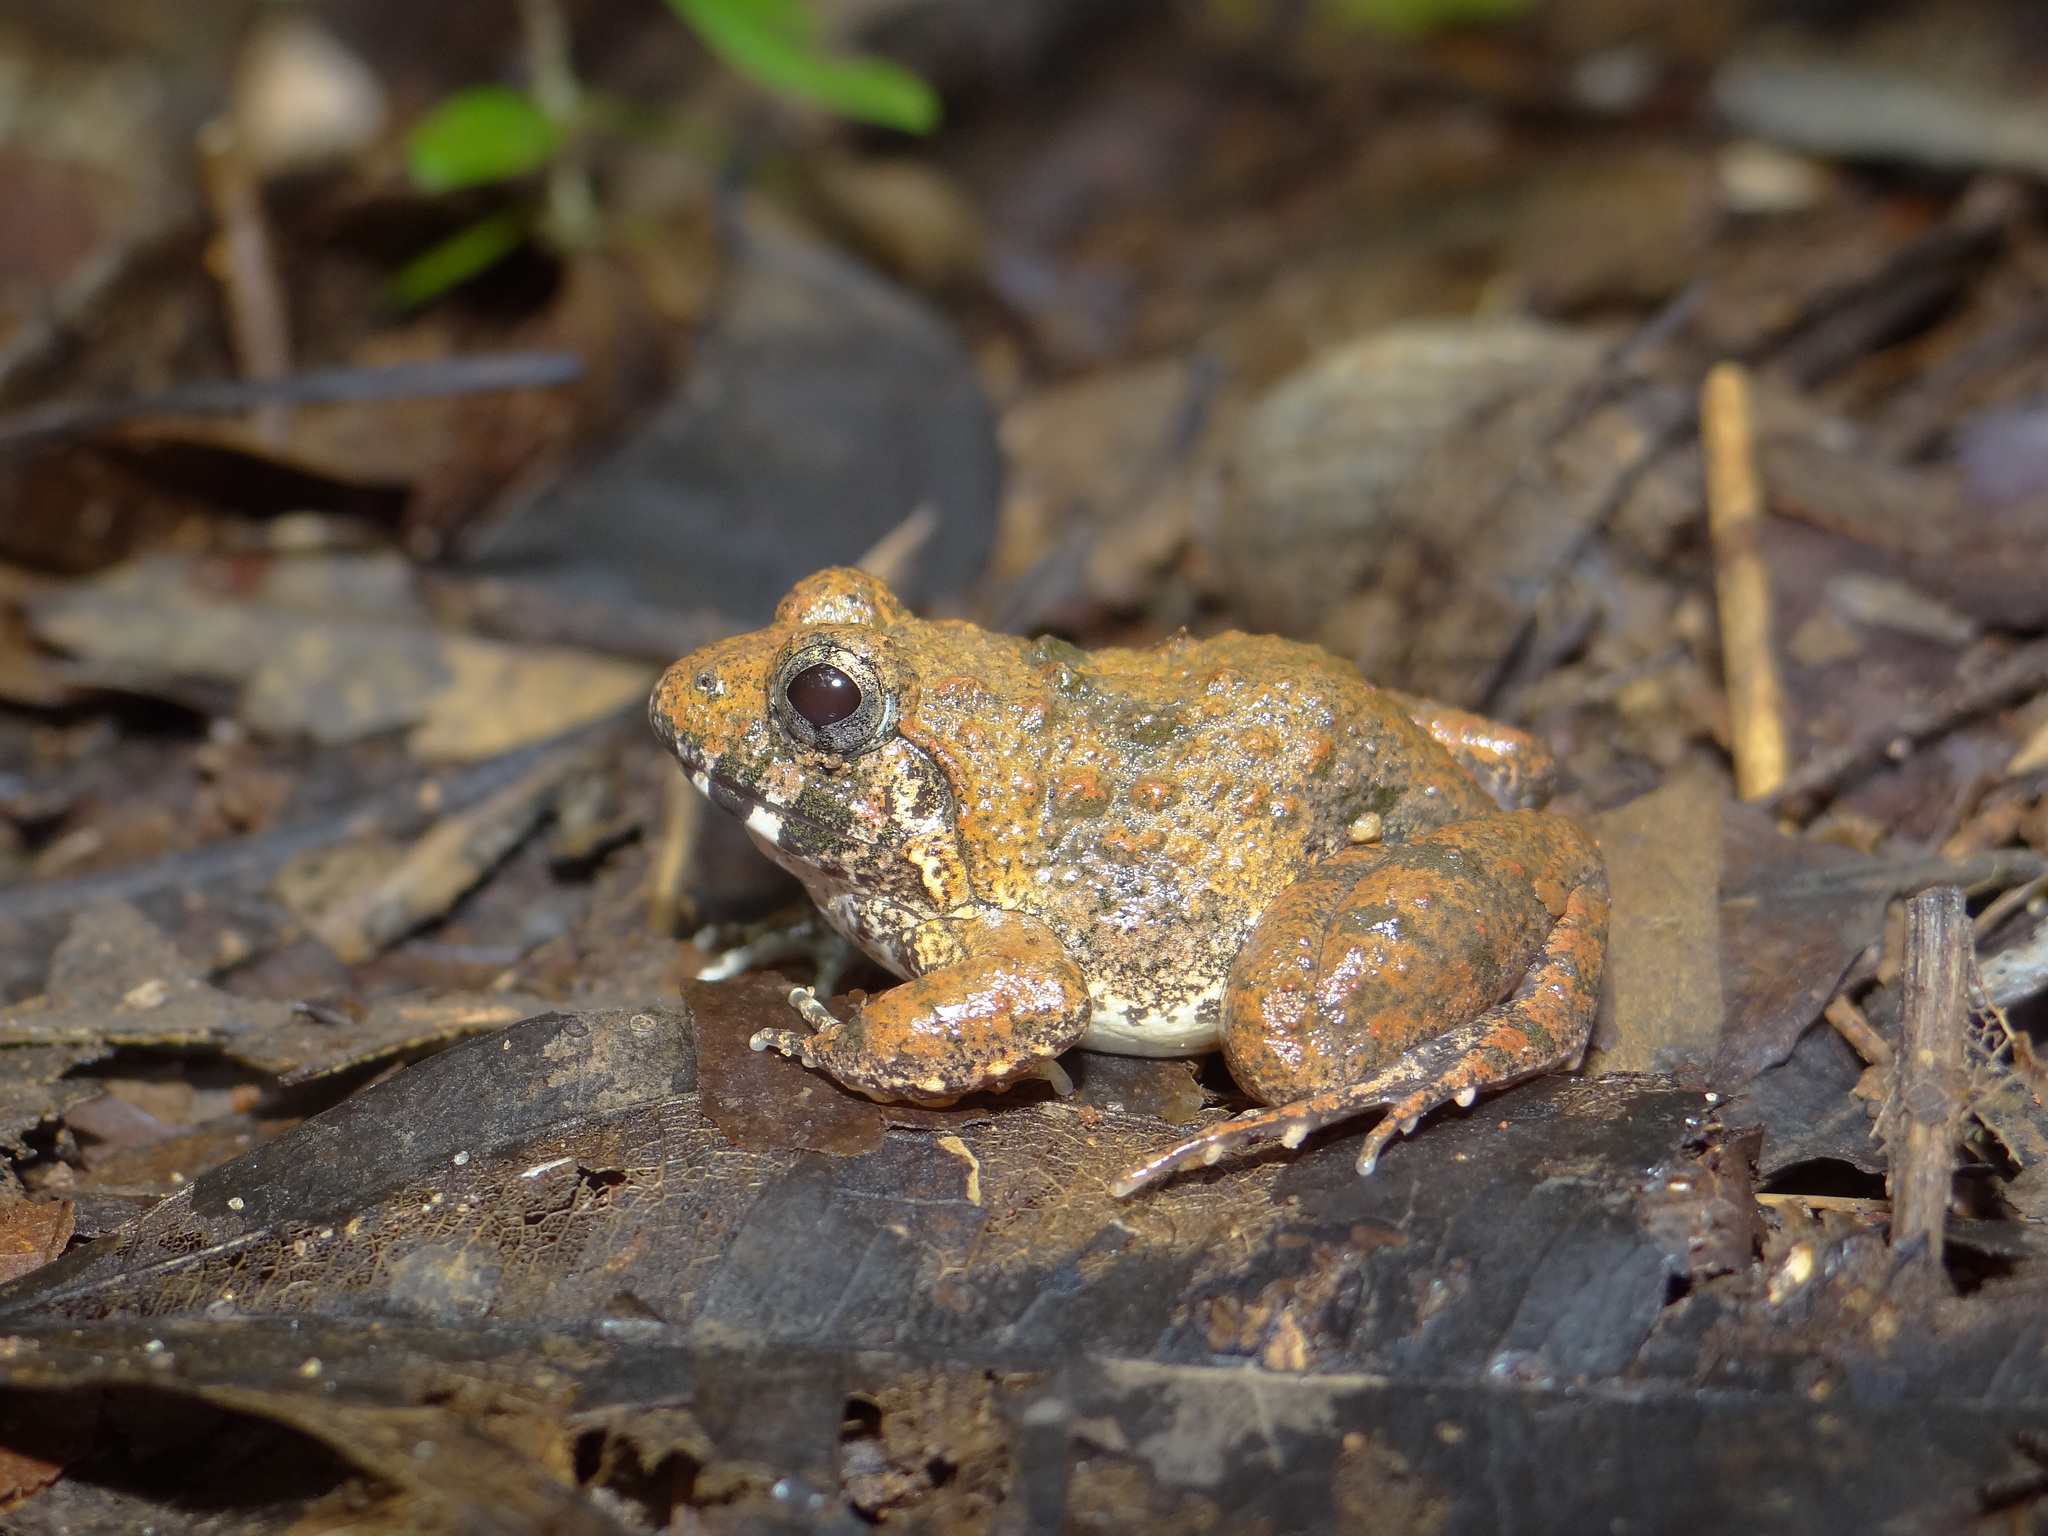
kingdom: Animalia
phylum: Chordata
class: Amphibia
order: Anura
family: Dicroglossidae
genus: Minervarya
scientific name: Minervarya rufescens
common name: Malabar wart frog
